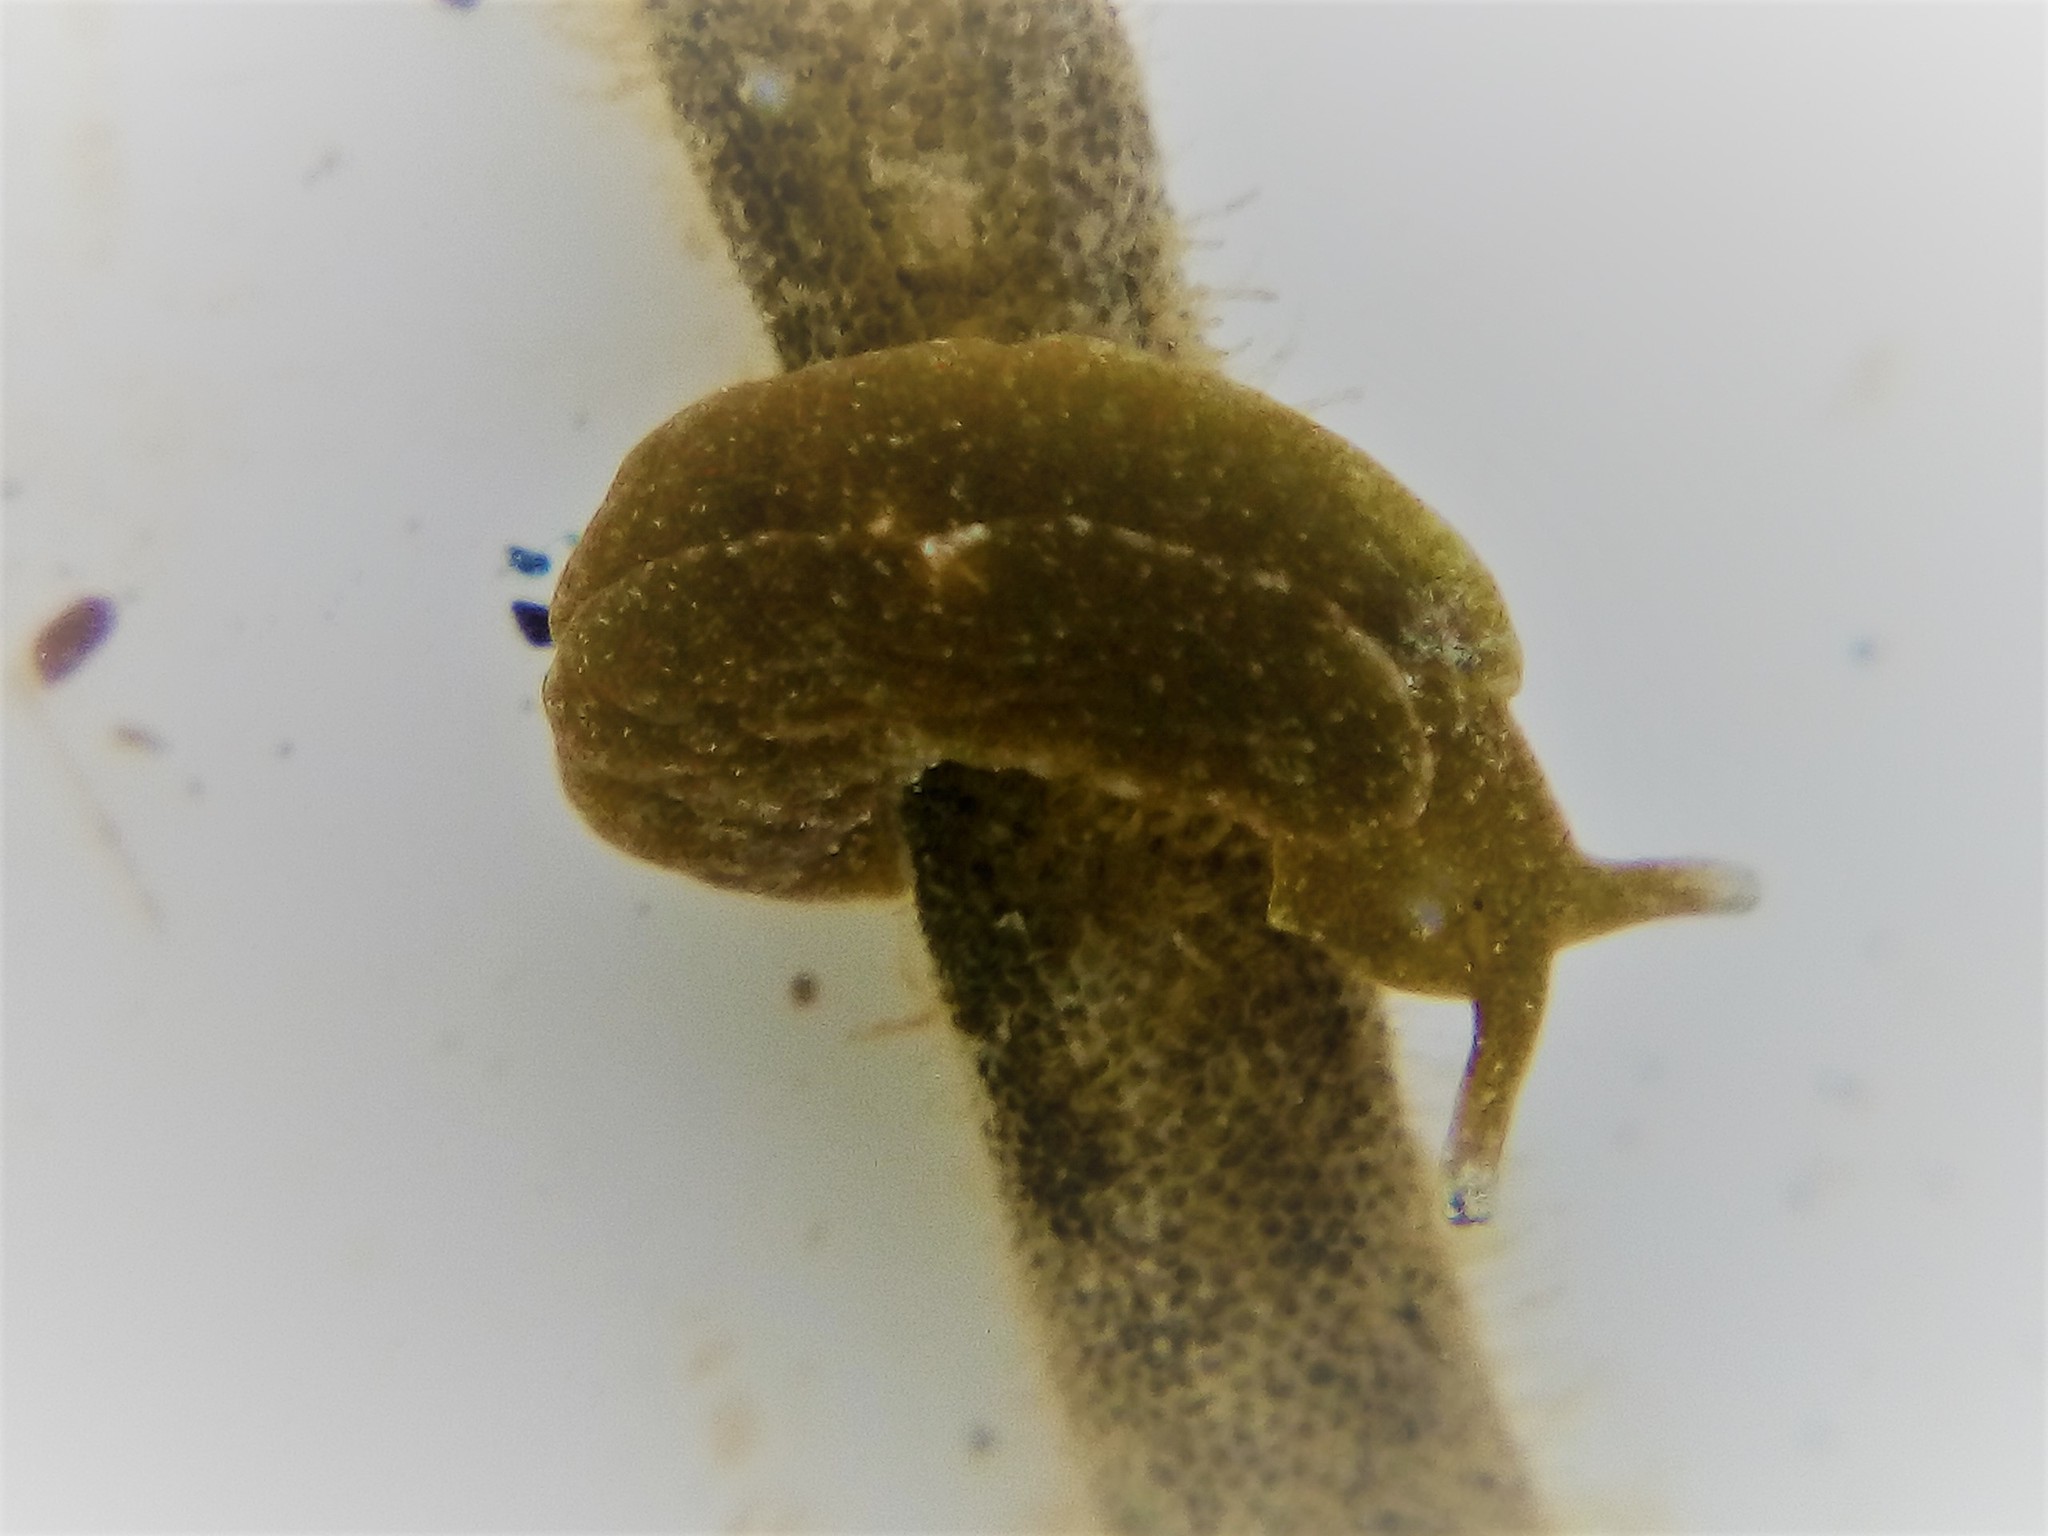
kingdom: Animalia
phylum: Mollusca
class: Gastropoda
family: Plakobranchidae
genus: Elysia
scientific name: Elysia maoria
